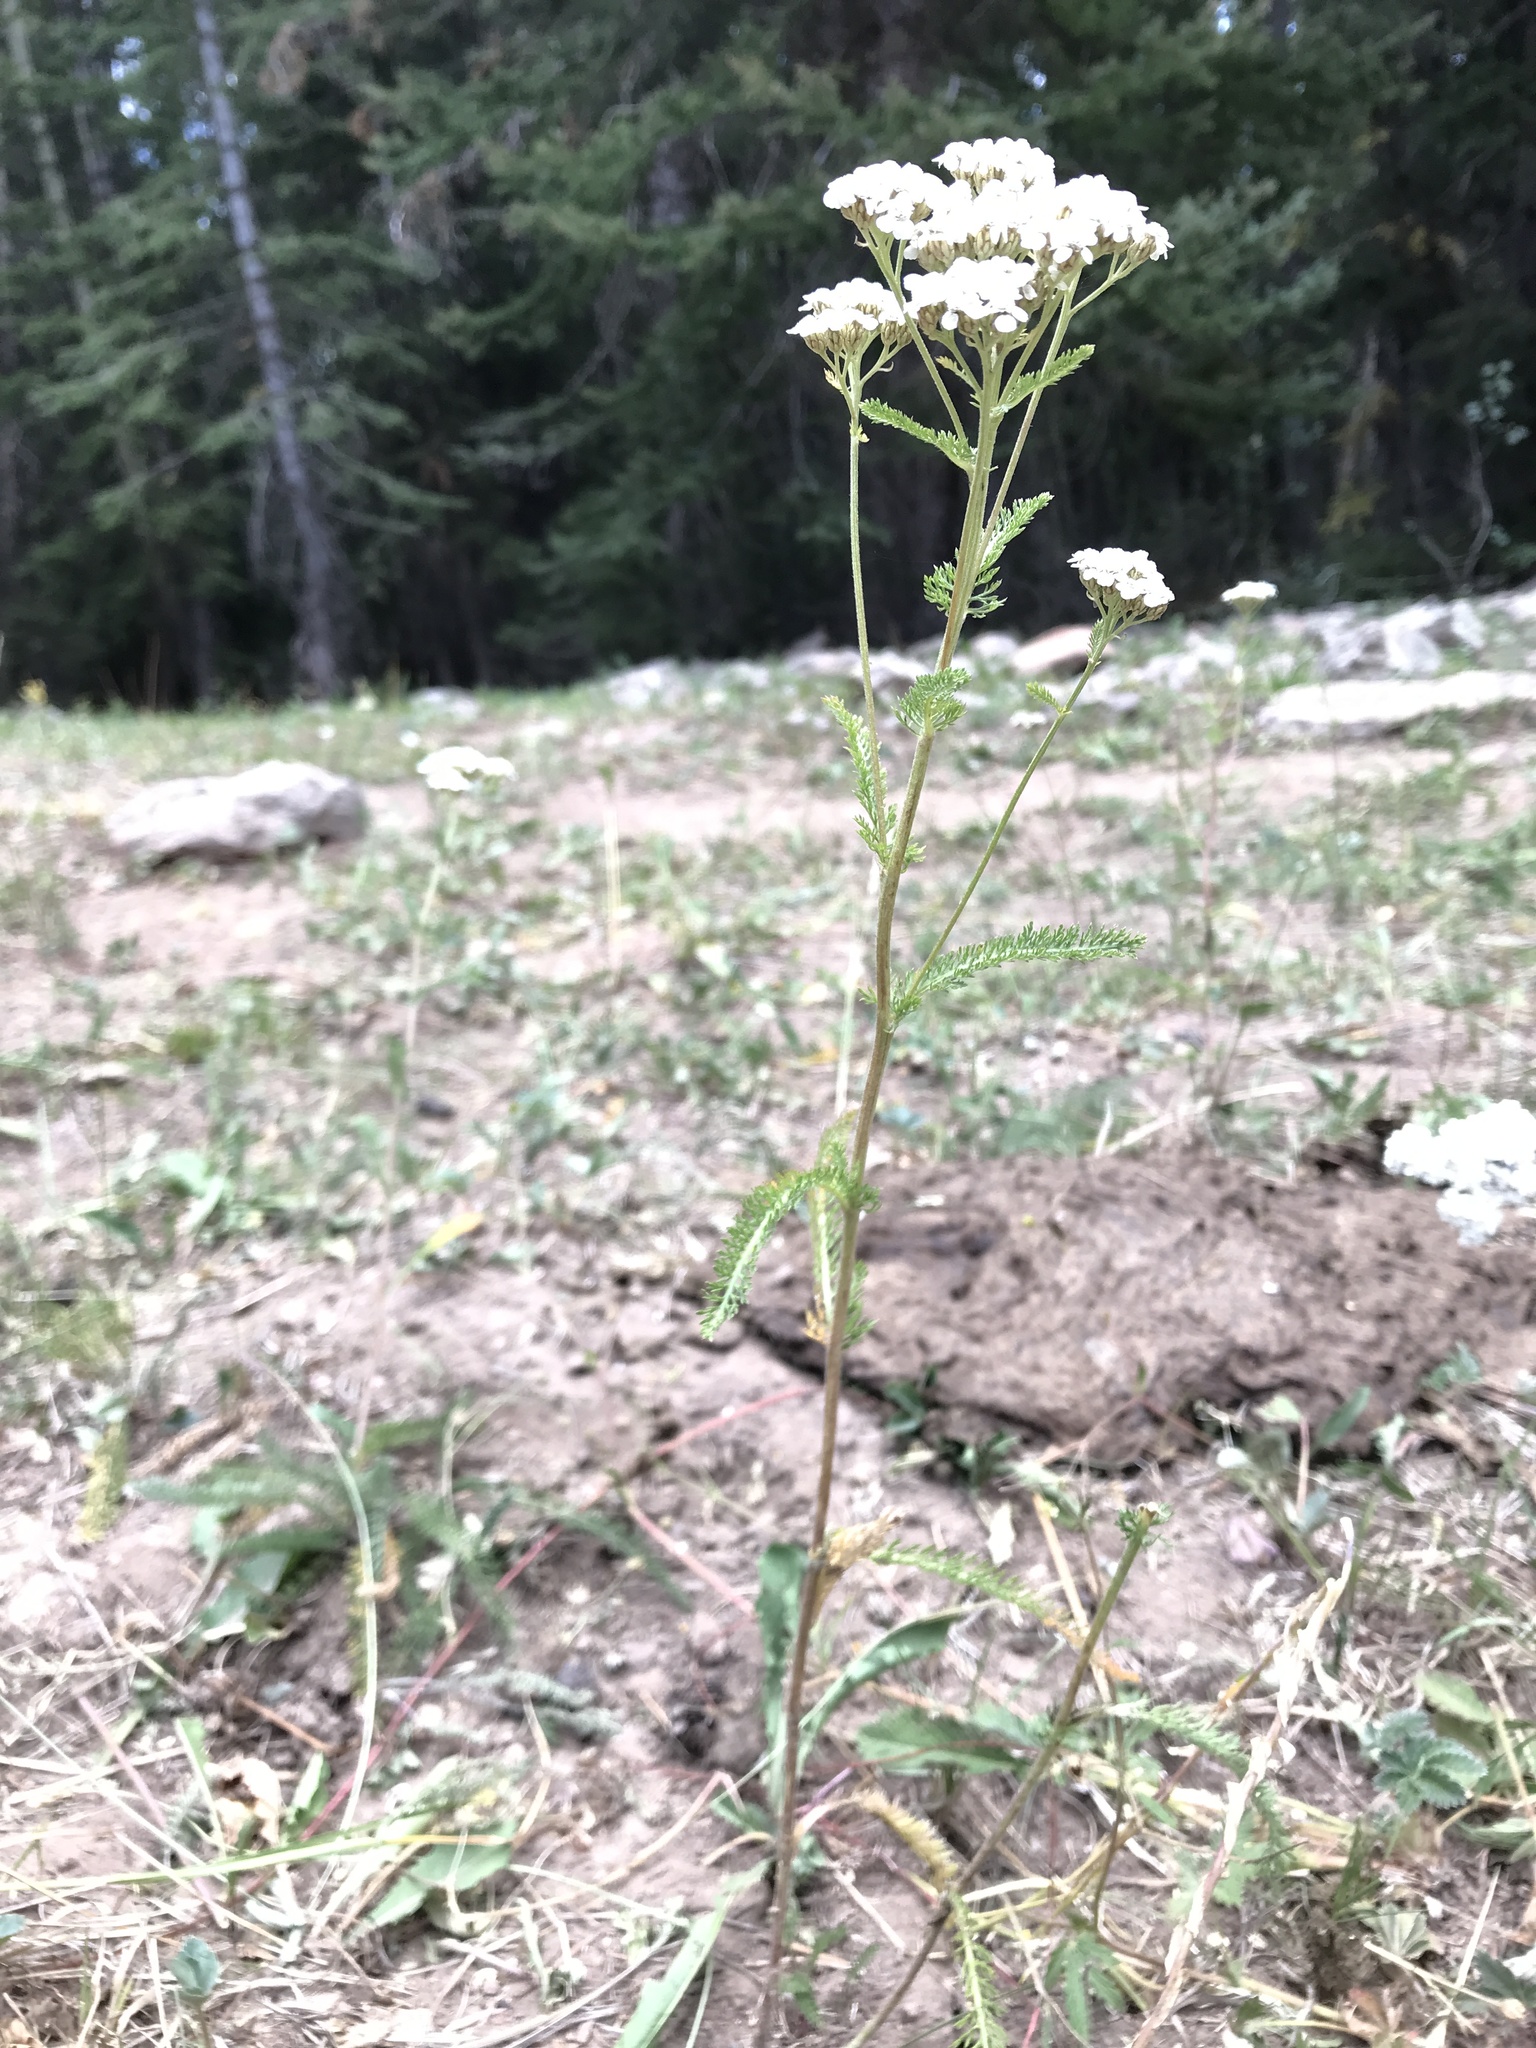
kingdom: Plantae
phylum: Tracheophyta
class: Magnoliopsida
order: Asterales
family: Asteraceae
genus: Achillea
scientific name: Achillea millefolium
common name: Yarrow
